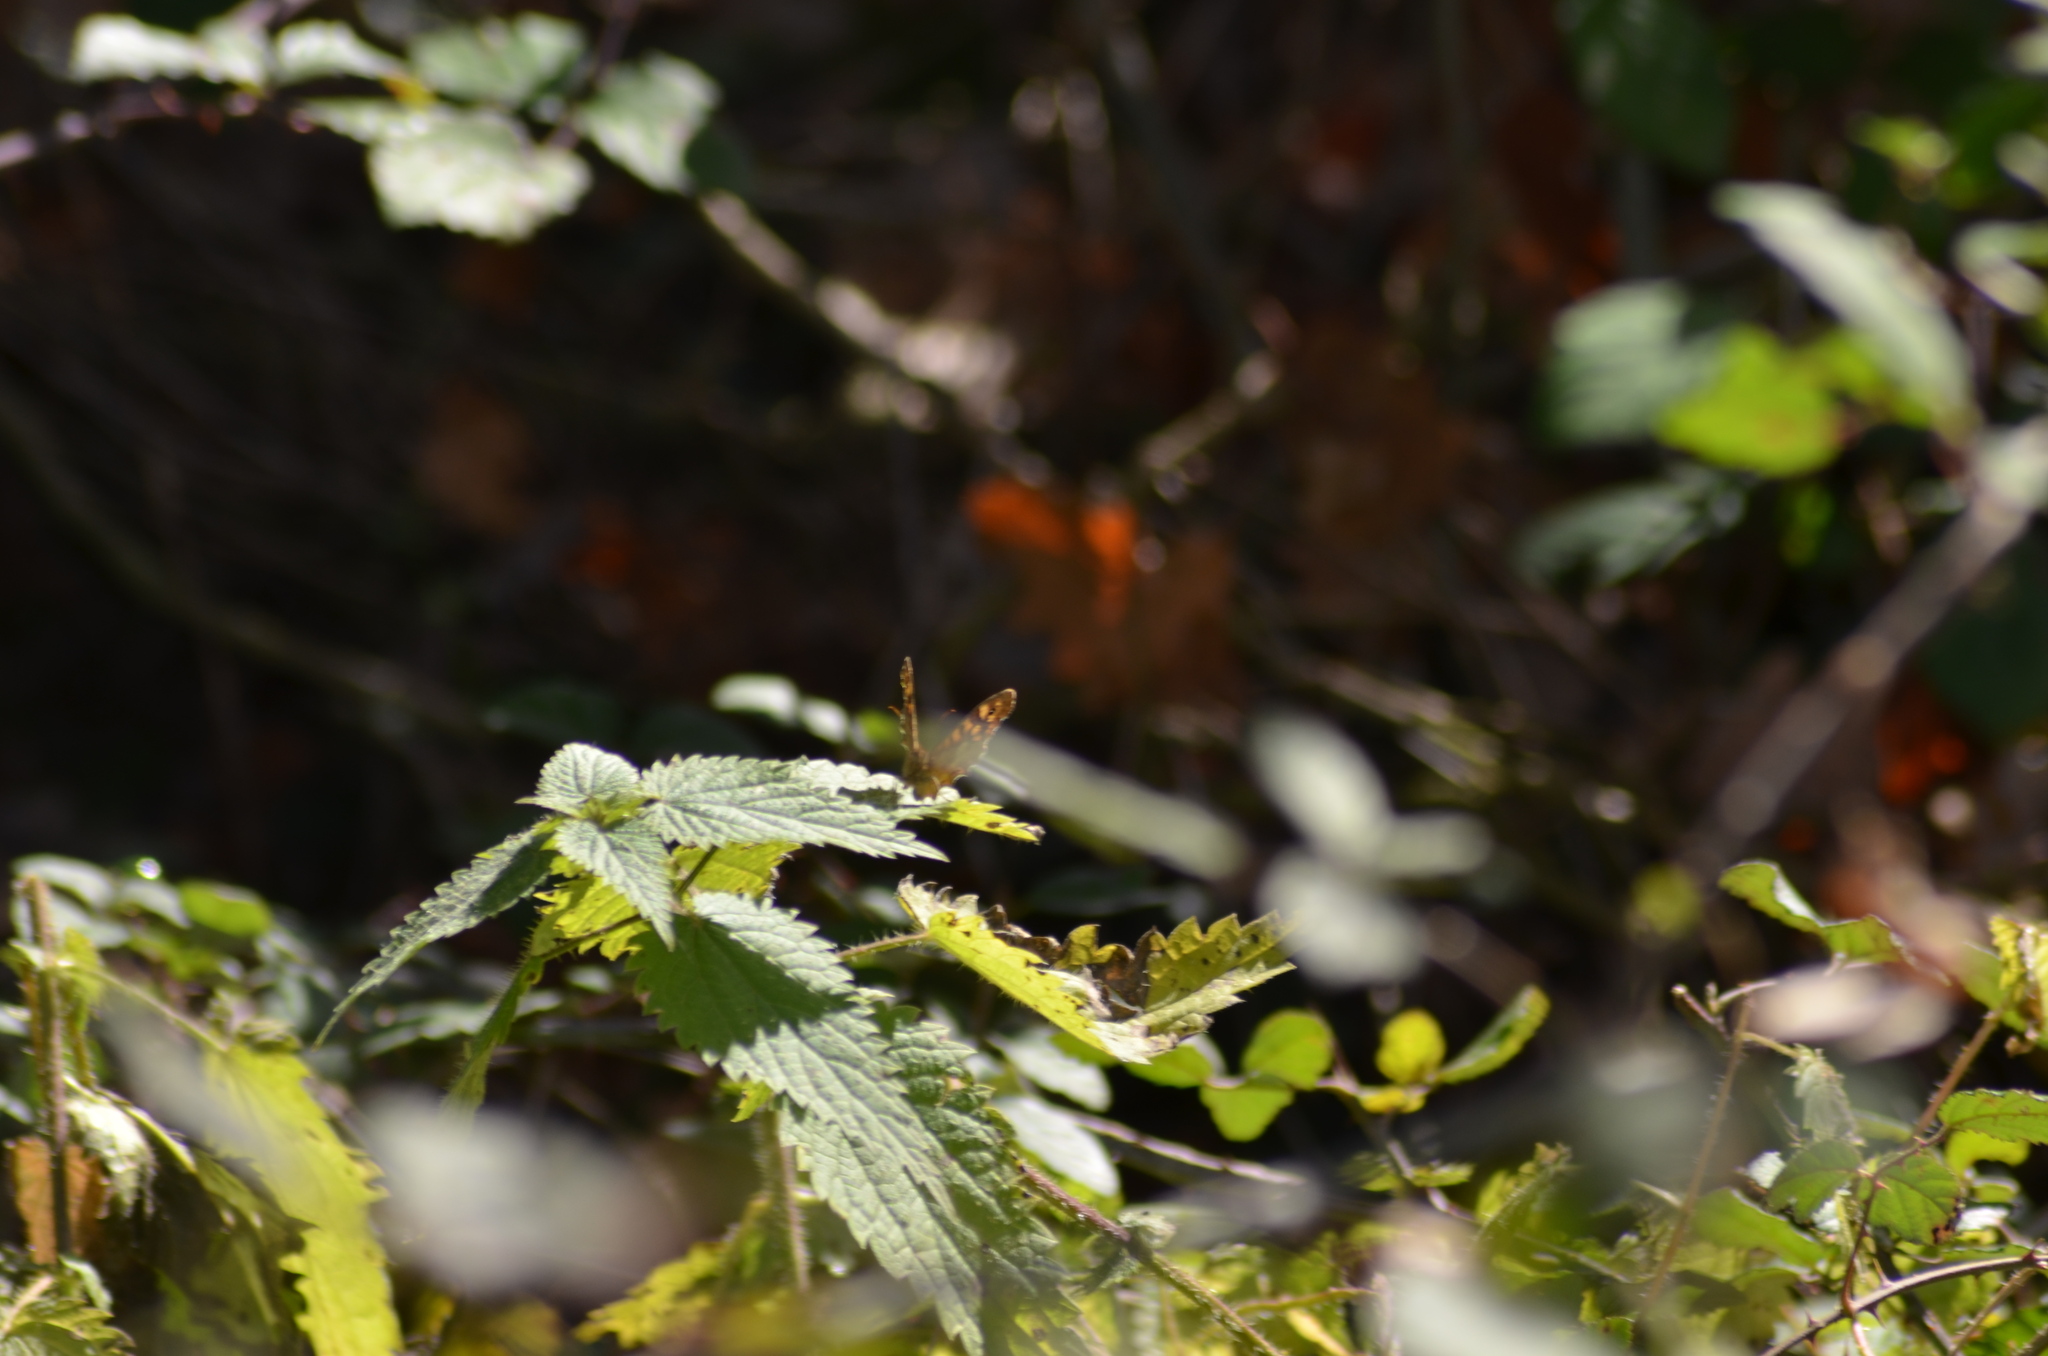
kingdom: Animalia
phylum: Arthropoda
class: Insecta
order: Lepidoptera
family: Nymphalidae
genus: Pararge
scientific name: Pararge aegeria
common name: Speckled wood
